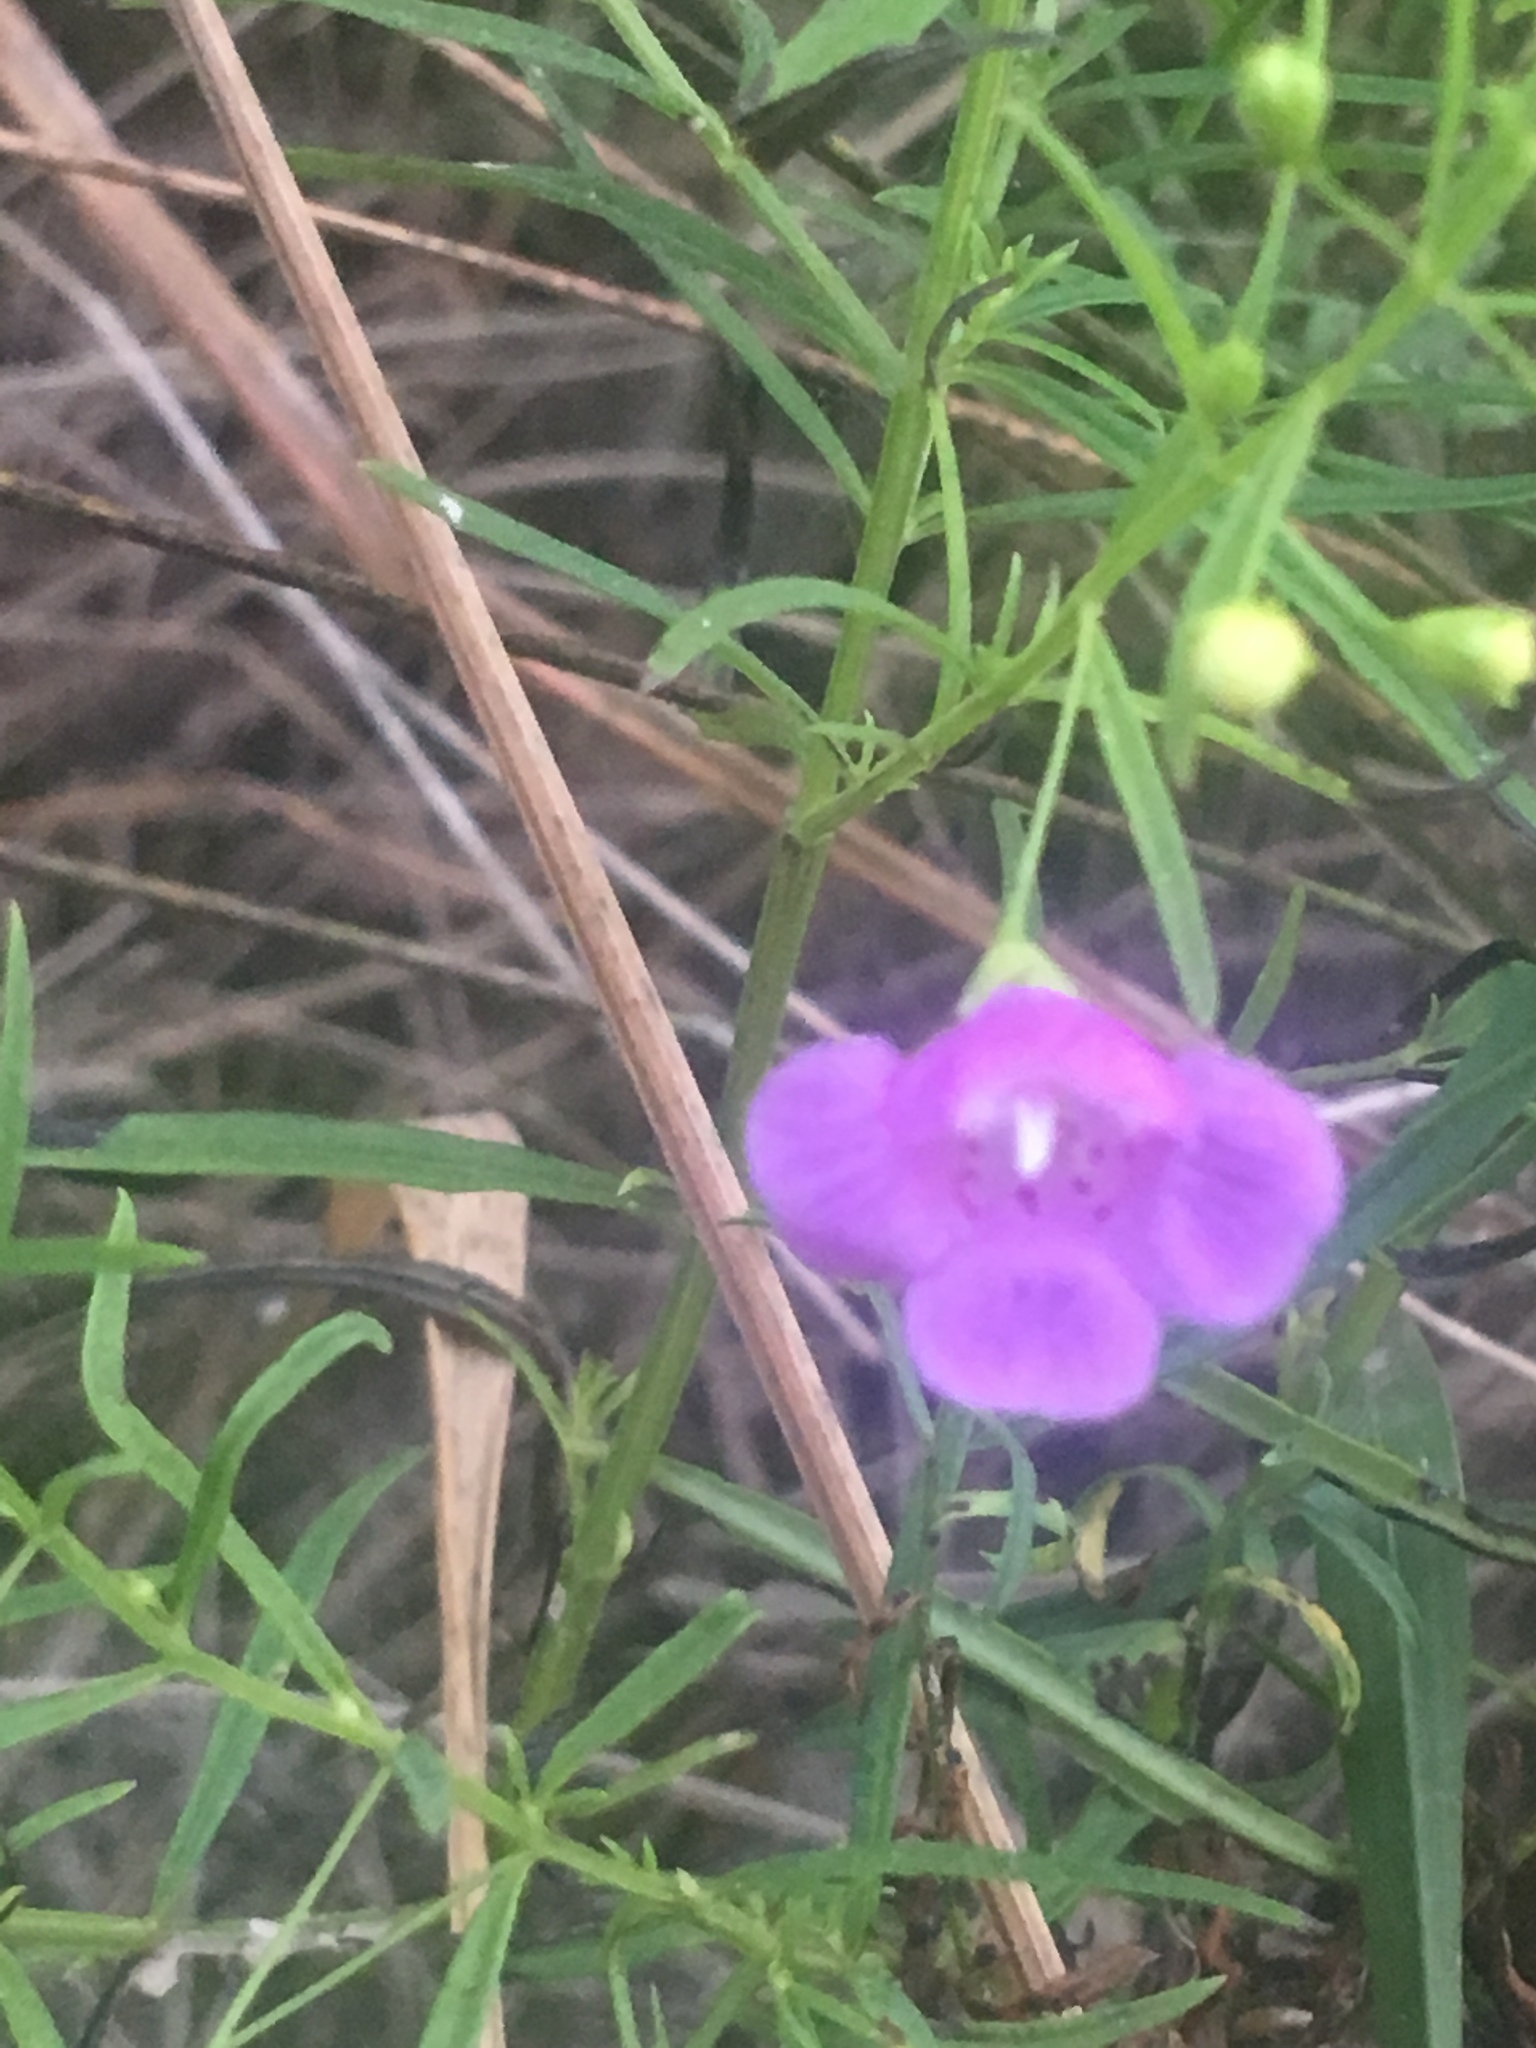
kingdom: Plantae
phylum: Tracheophyta
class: Magnoliopsida
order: Lamiales
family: Orobanchaceae
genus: Agalinis
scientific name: Agalinis tenuifolia
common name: Slender agalinis
